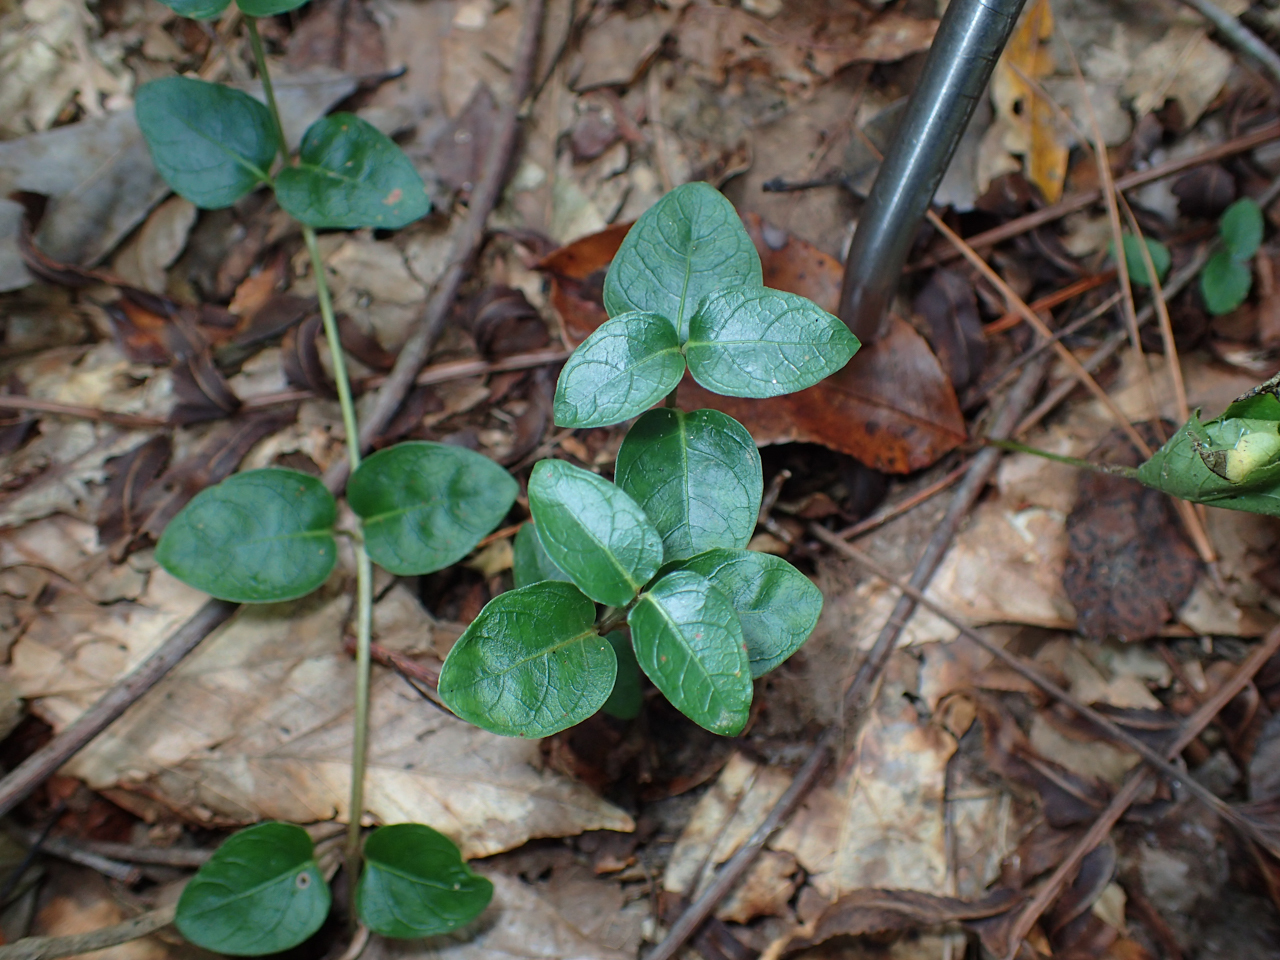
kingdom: Plantae
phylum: Tracheophyta
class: Magnoliopsida
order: Gentianales
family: Rubiaceae
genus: Mitchella
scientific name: Mitchella repens
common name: Partridge-berry
